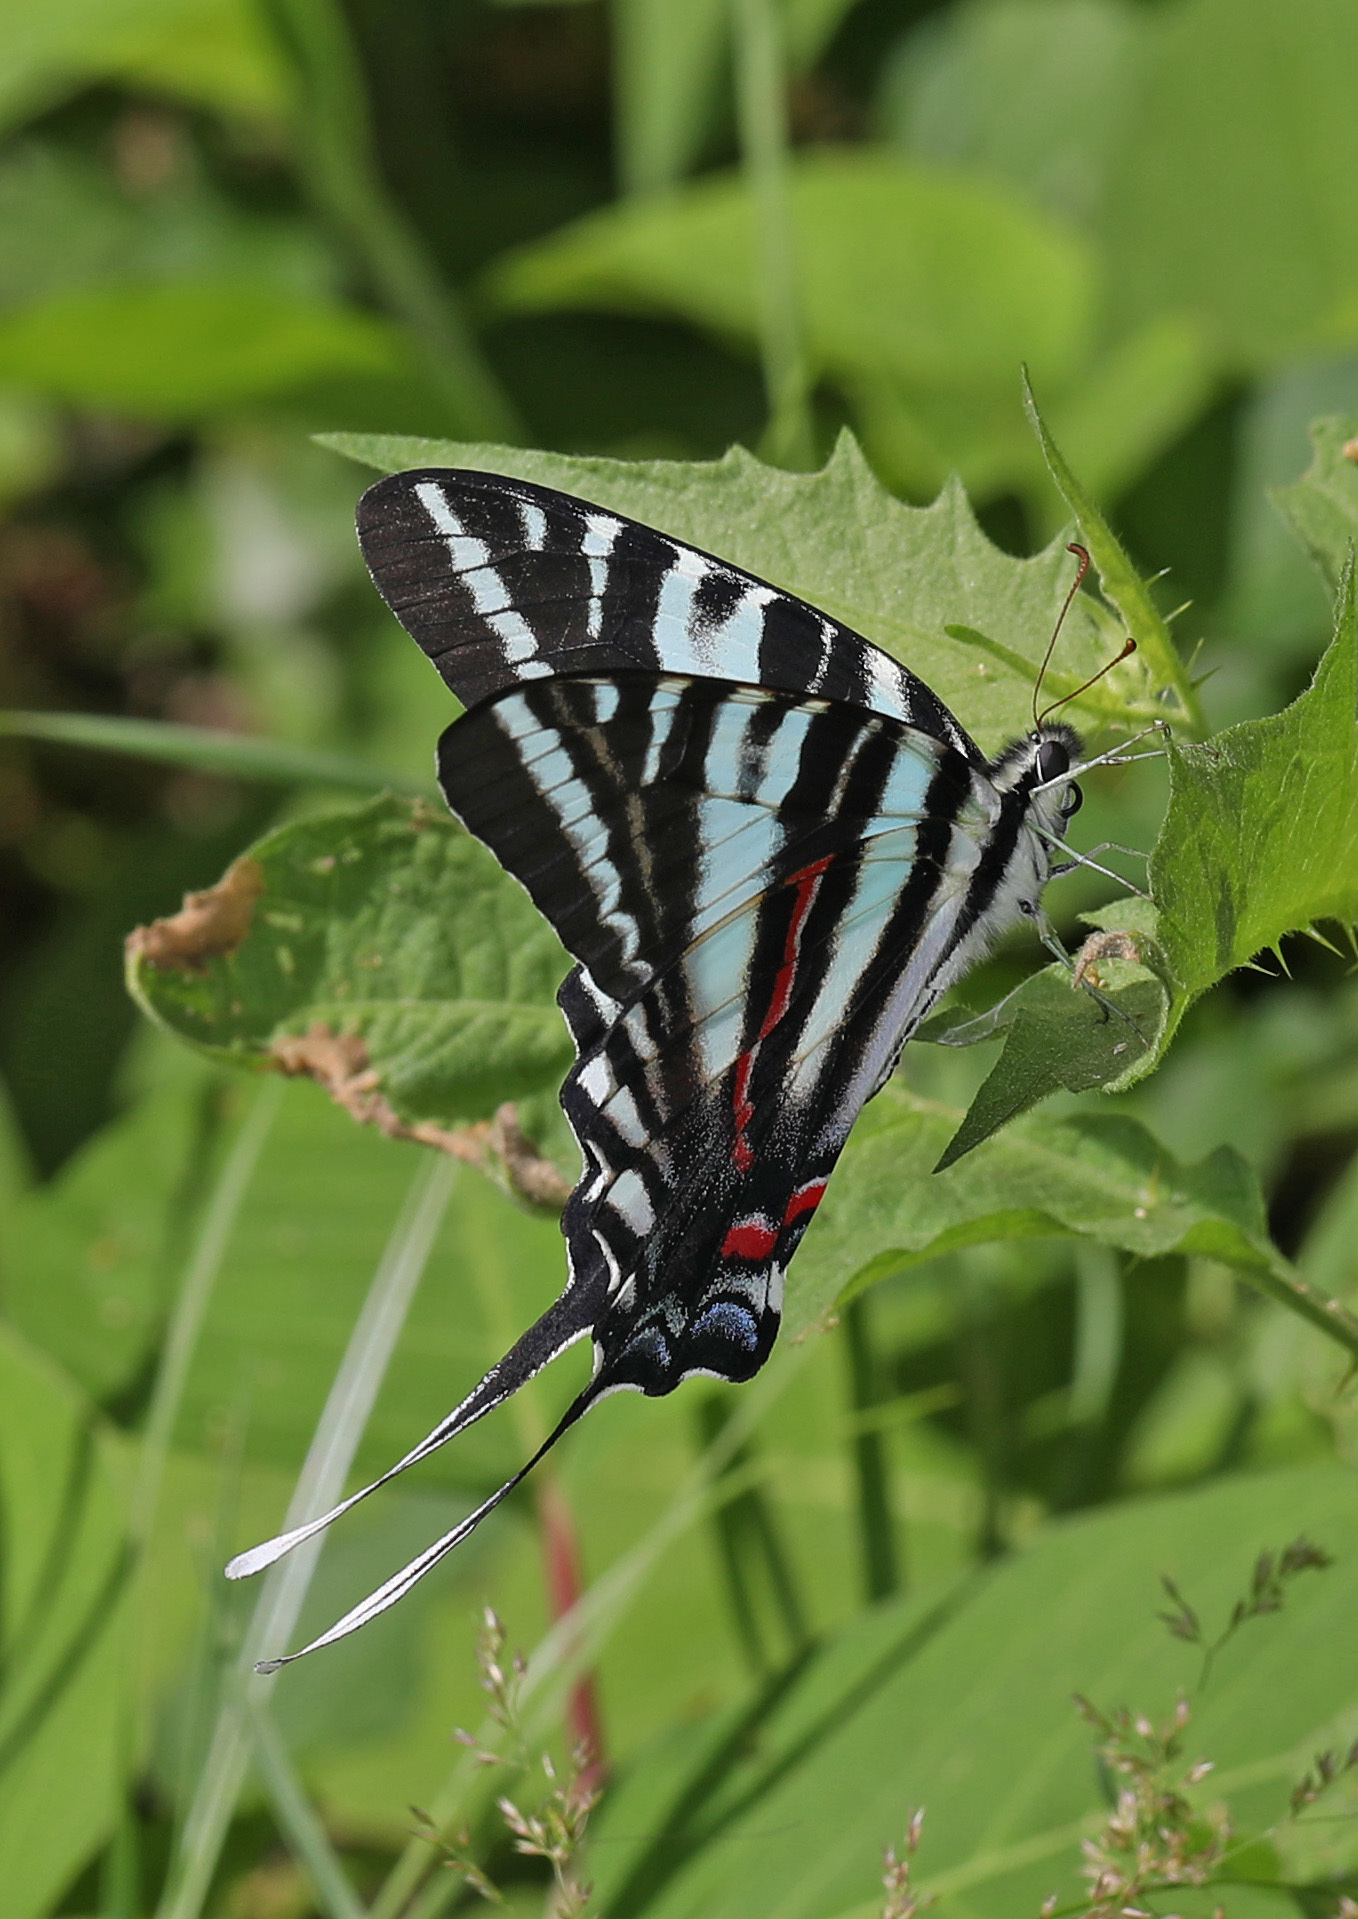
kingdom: Animalia
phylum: Arthropoda
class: Insecta
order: Lepidoptera
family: Papilionidae
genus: Protographium
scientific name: Protographium marcellus
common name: Zebra swallowtail
